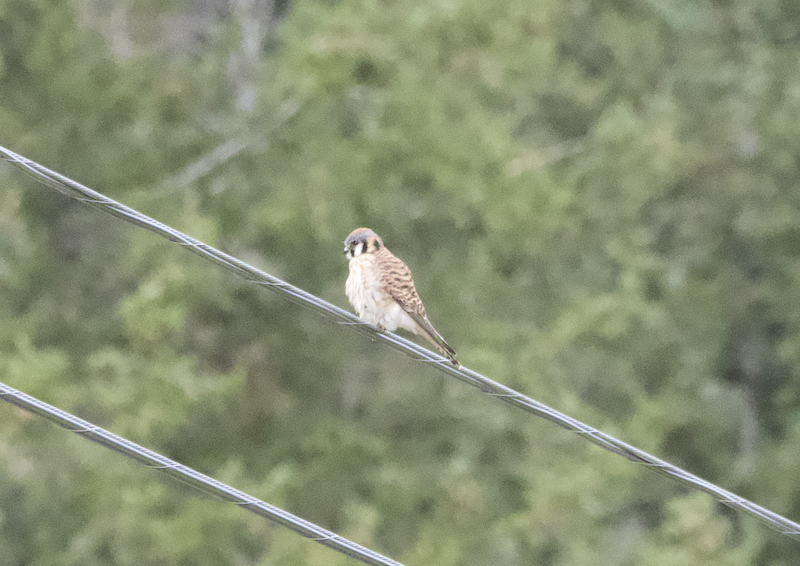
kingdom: Animalia
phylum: Chordata
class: Aves
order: Falconiformes
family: Falconidae
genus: Falco
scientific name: Falco sparverius
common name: American kestrel
